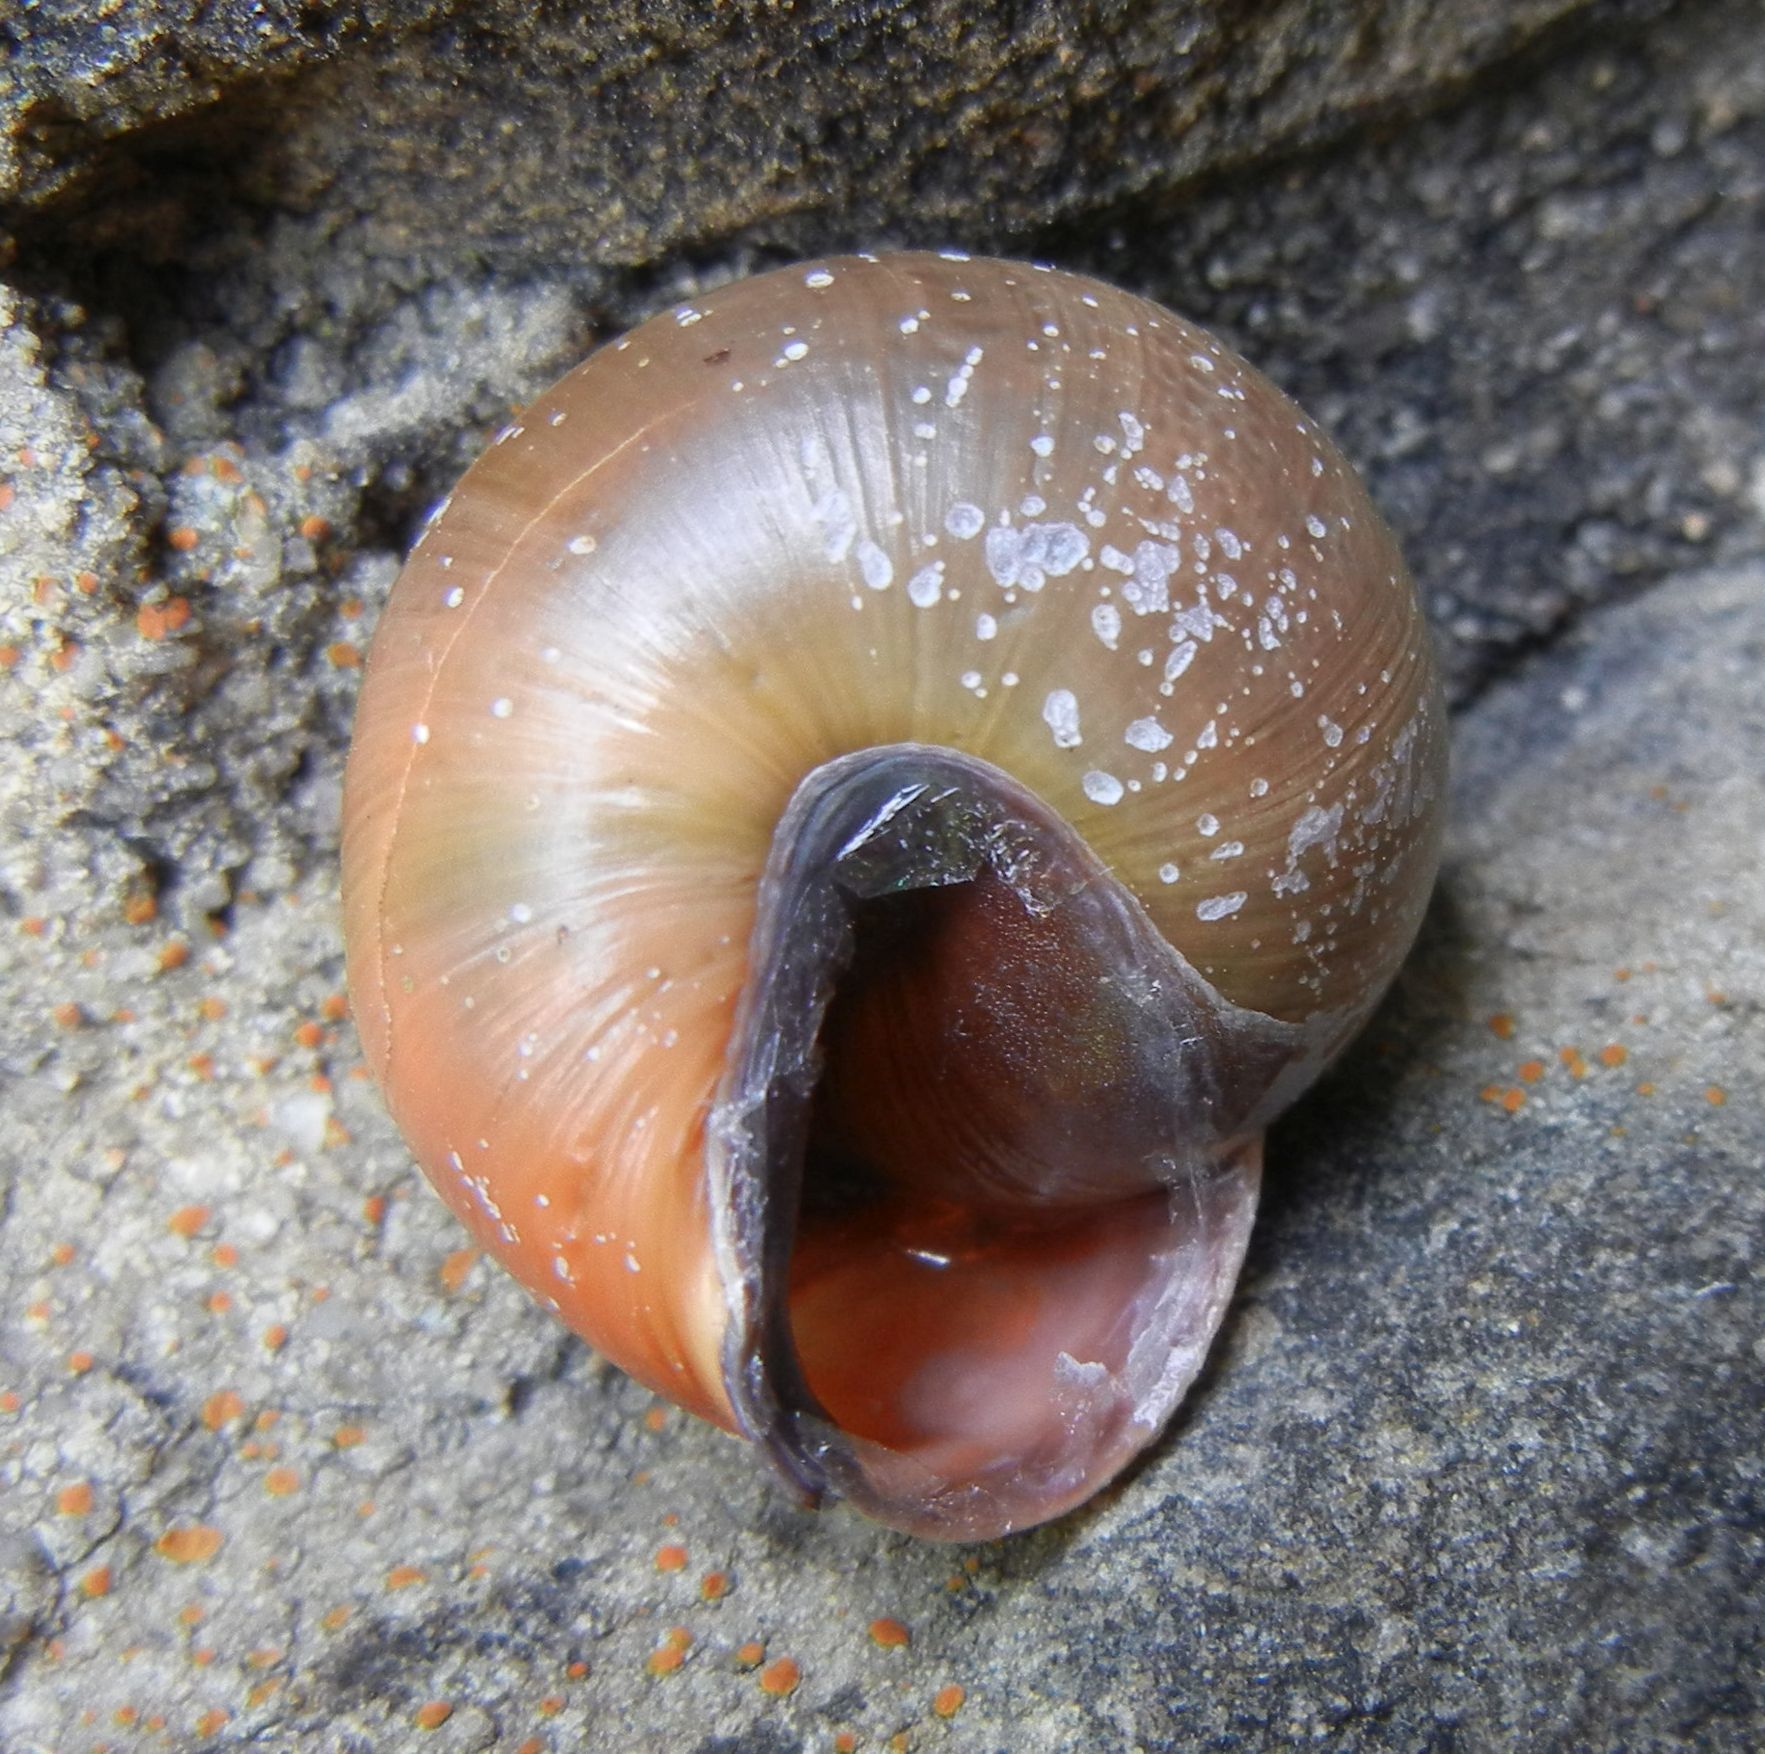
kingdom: Animalia
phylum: Mollusca
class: Gastropoda
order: Stylommatophora
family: Helicidae
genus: Cepaea
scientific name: Cepaea nemoralis
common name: Grovesnail
